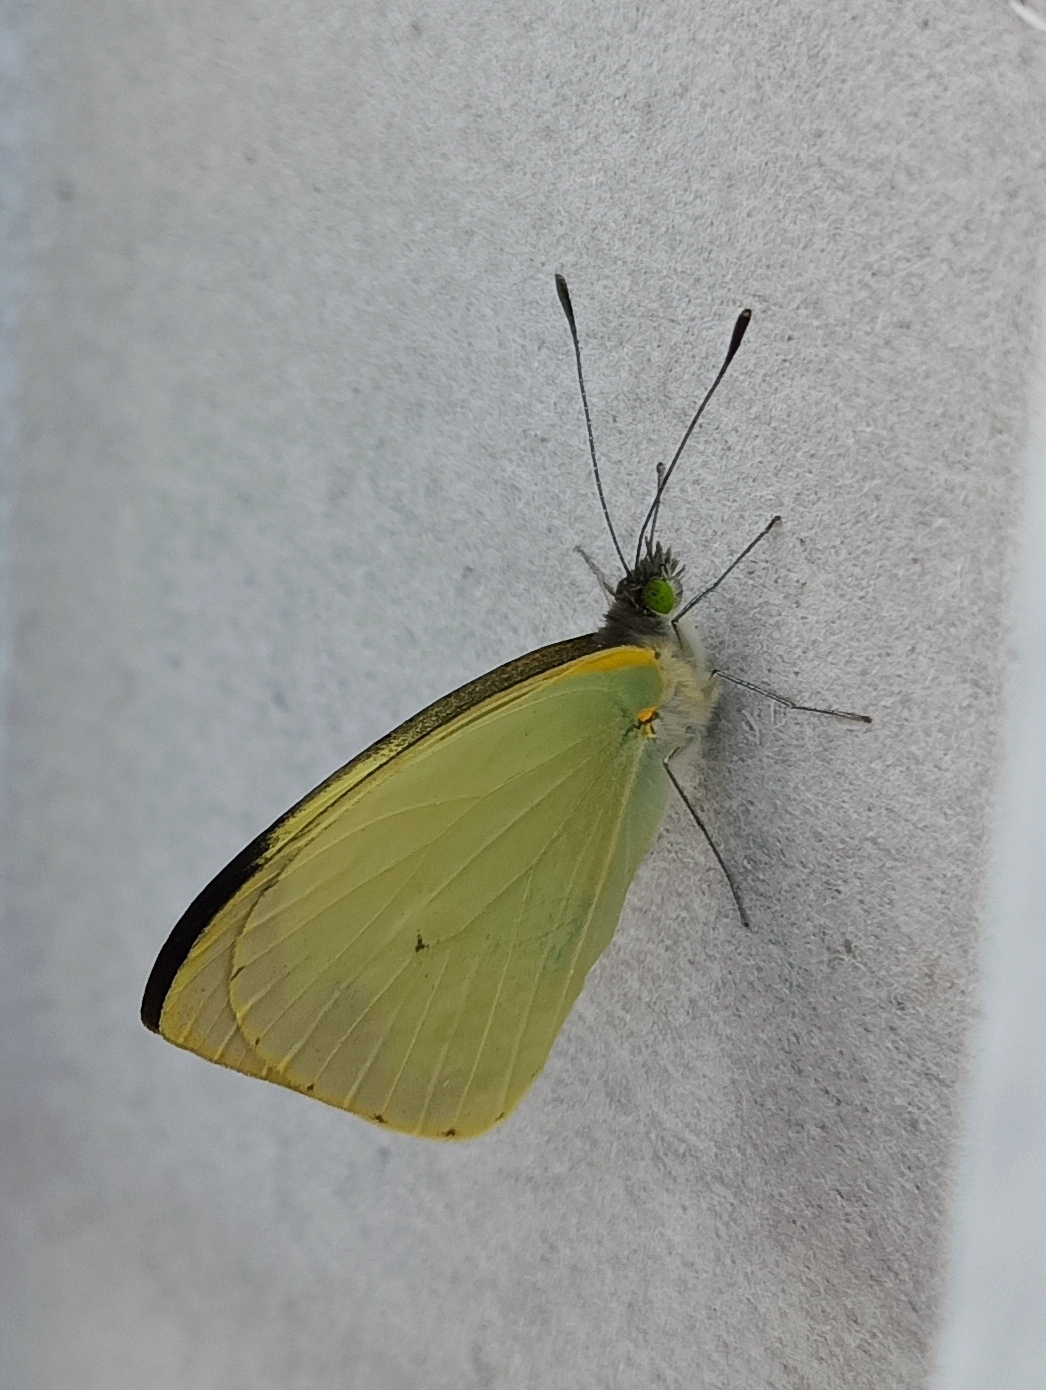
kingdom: Animalia
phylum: Arthropoda
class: Insecta
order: Lepidoptera
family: Pieridae
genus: Leptophobia
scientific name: Leptophobia aripa
